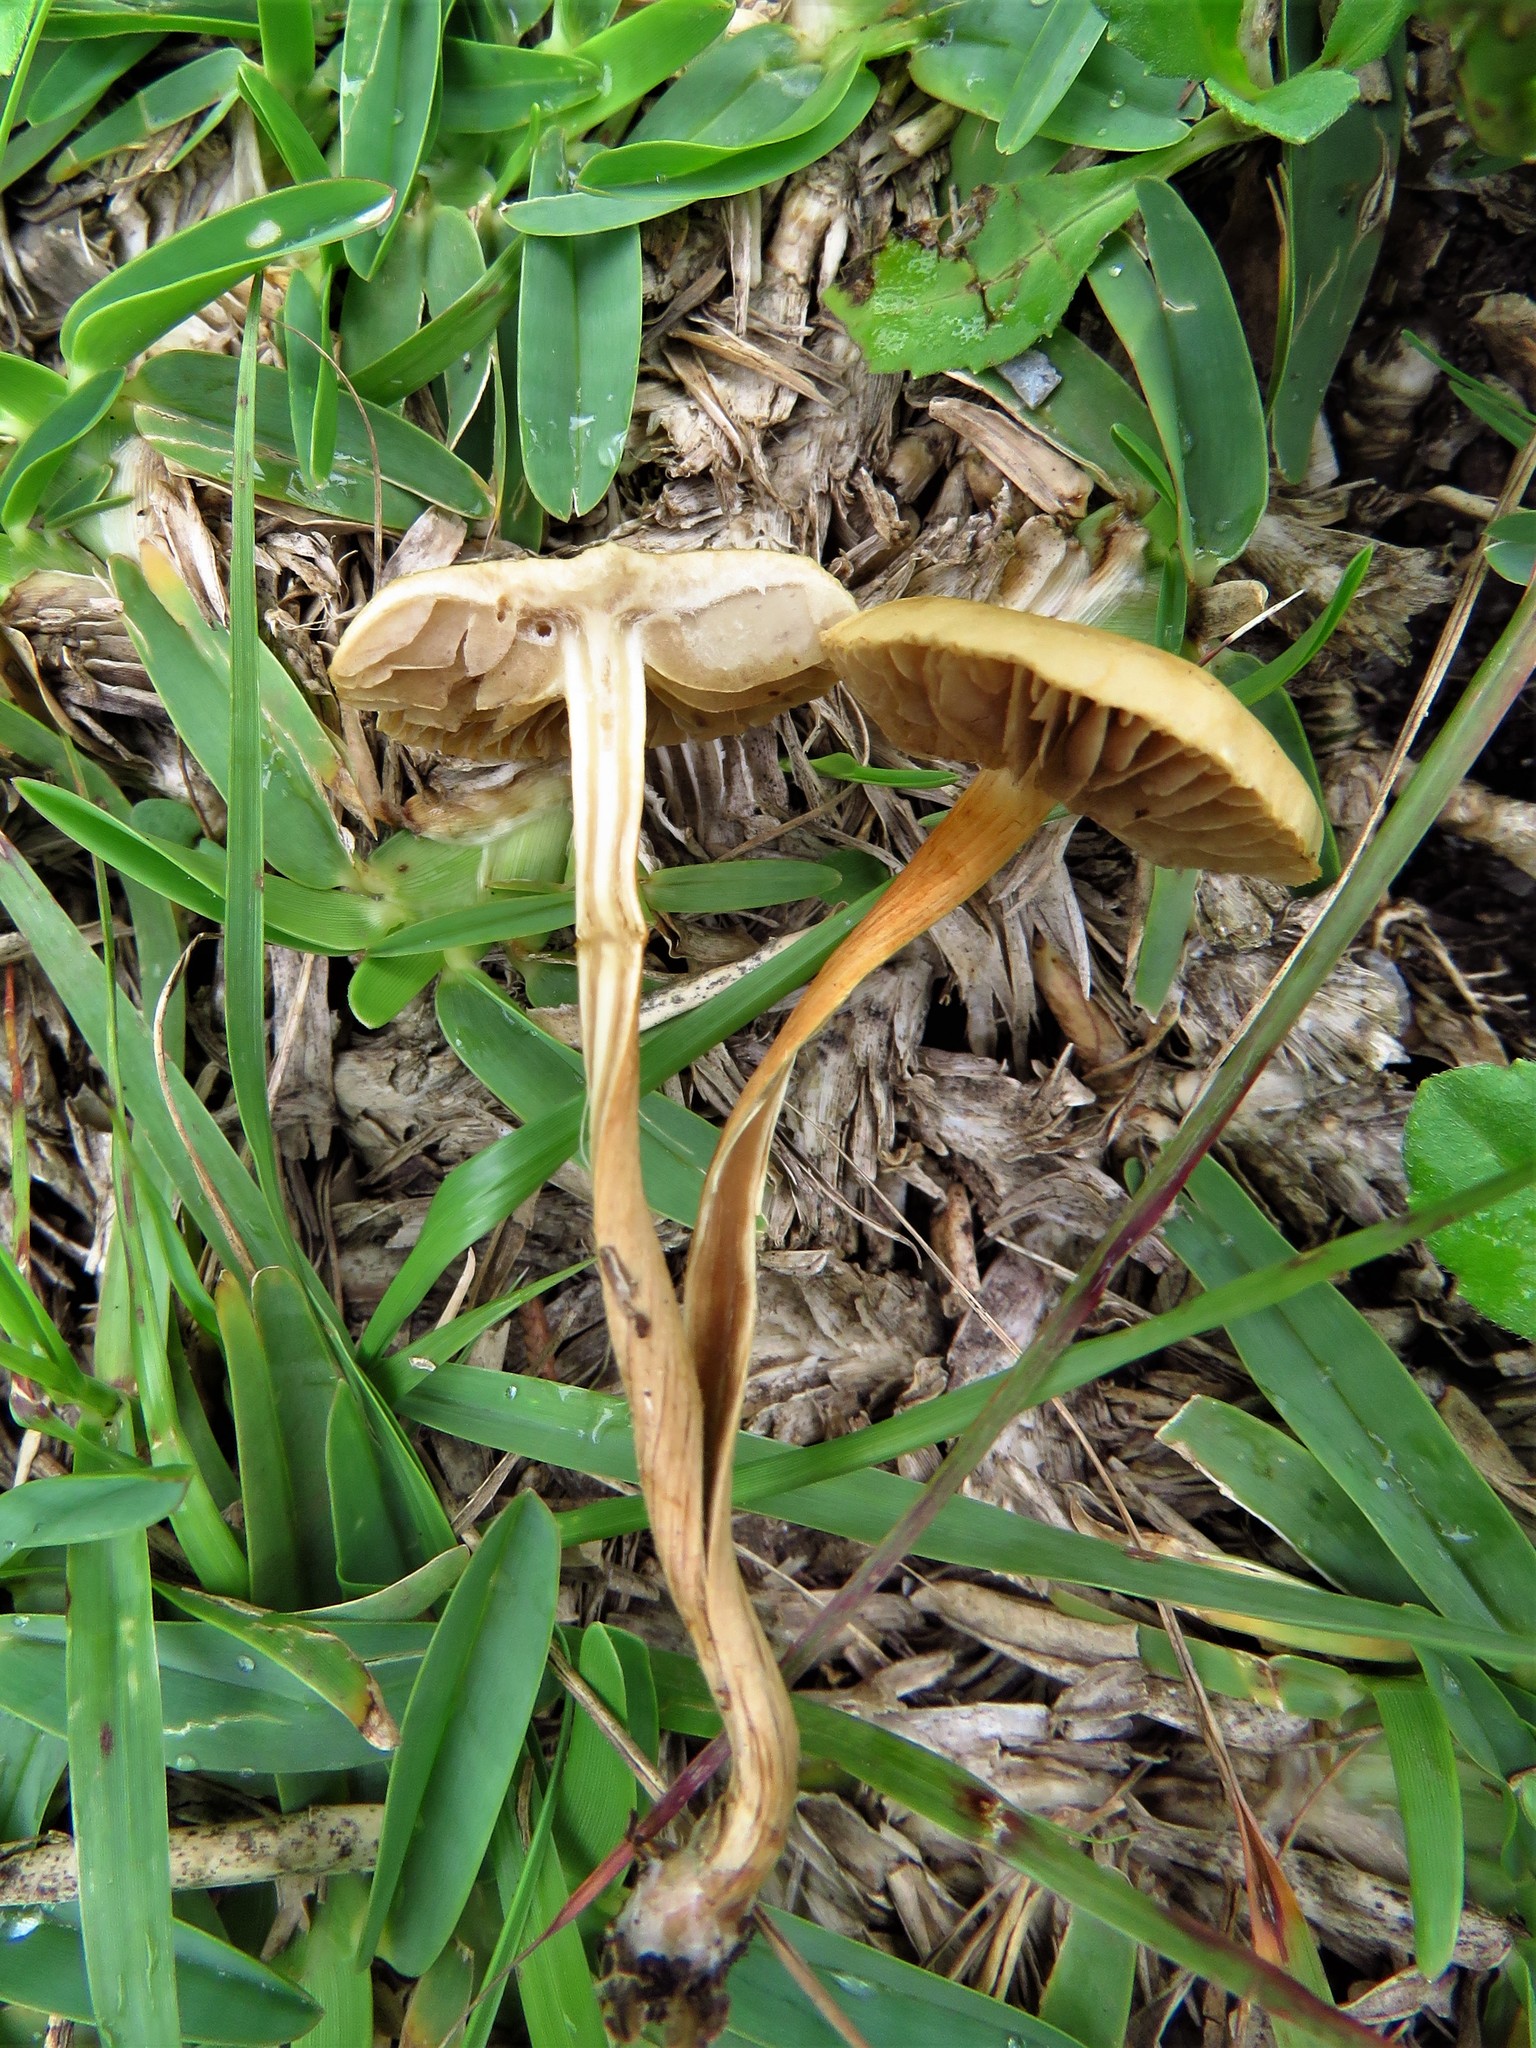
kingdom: Fungi
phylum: Basidiomycota
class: Agaricomycetes
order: Agaricales
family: Strophariaceae
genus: Agrocybe
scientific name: Agrocybe pediades
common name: Common fieldcap
